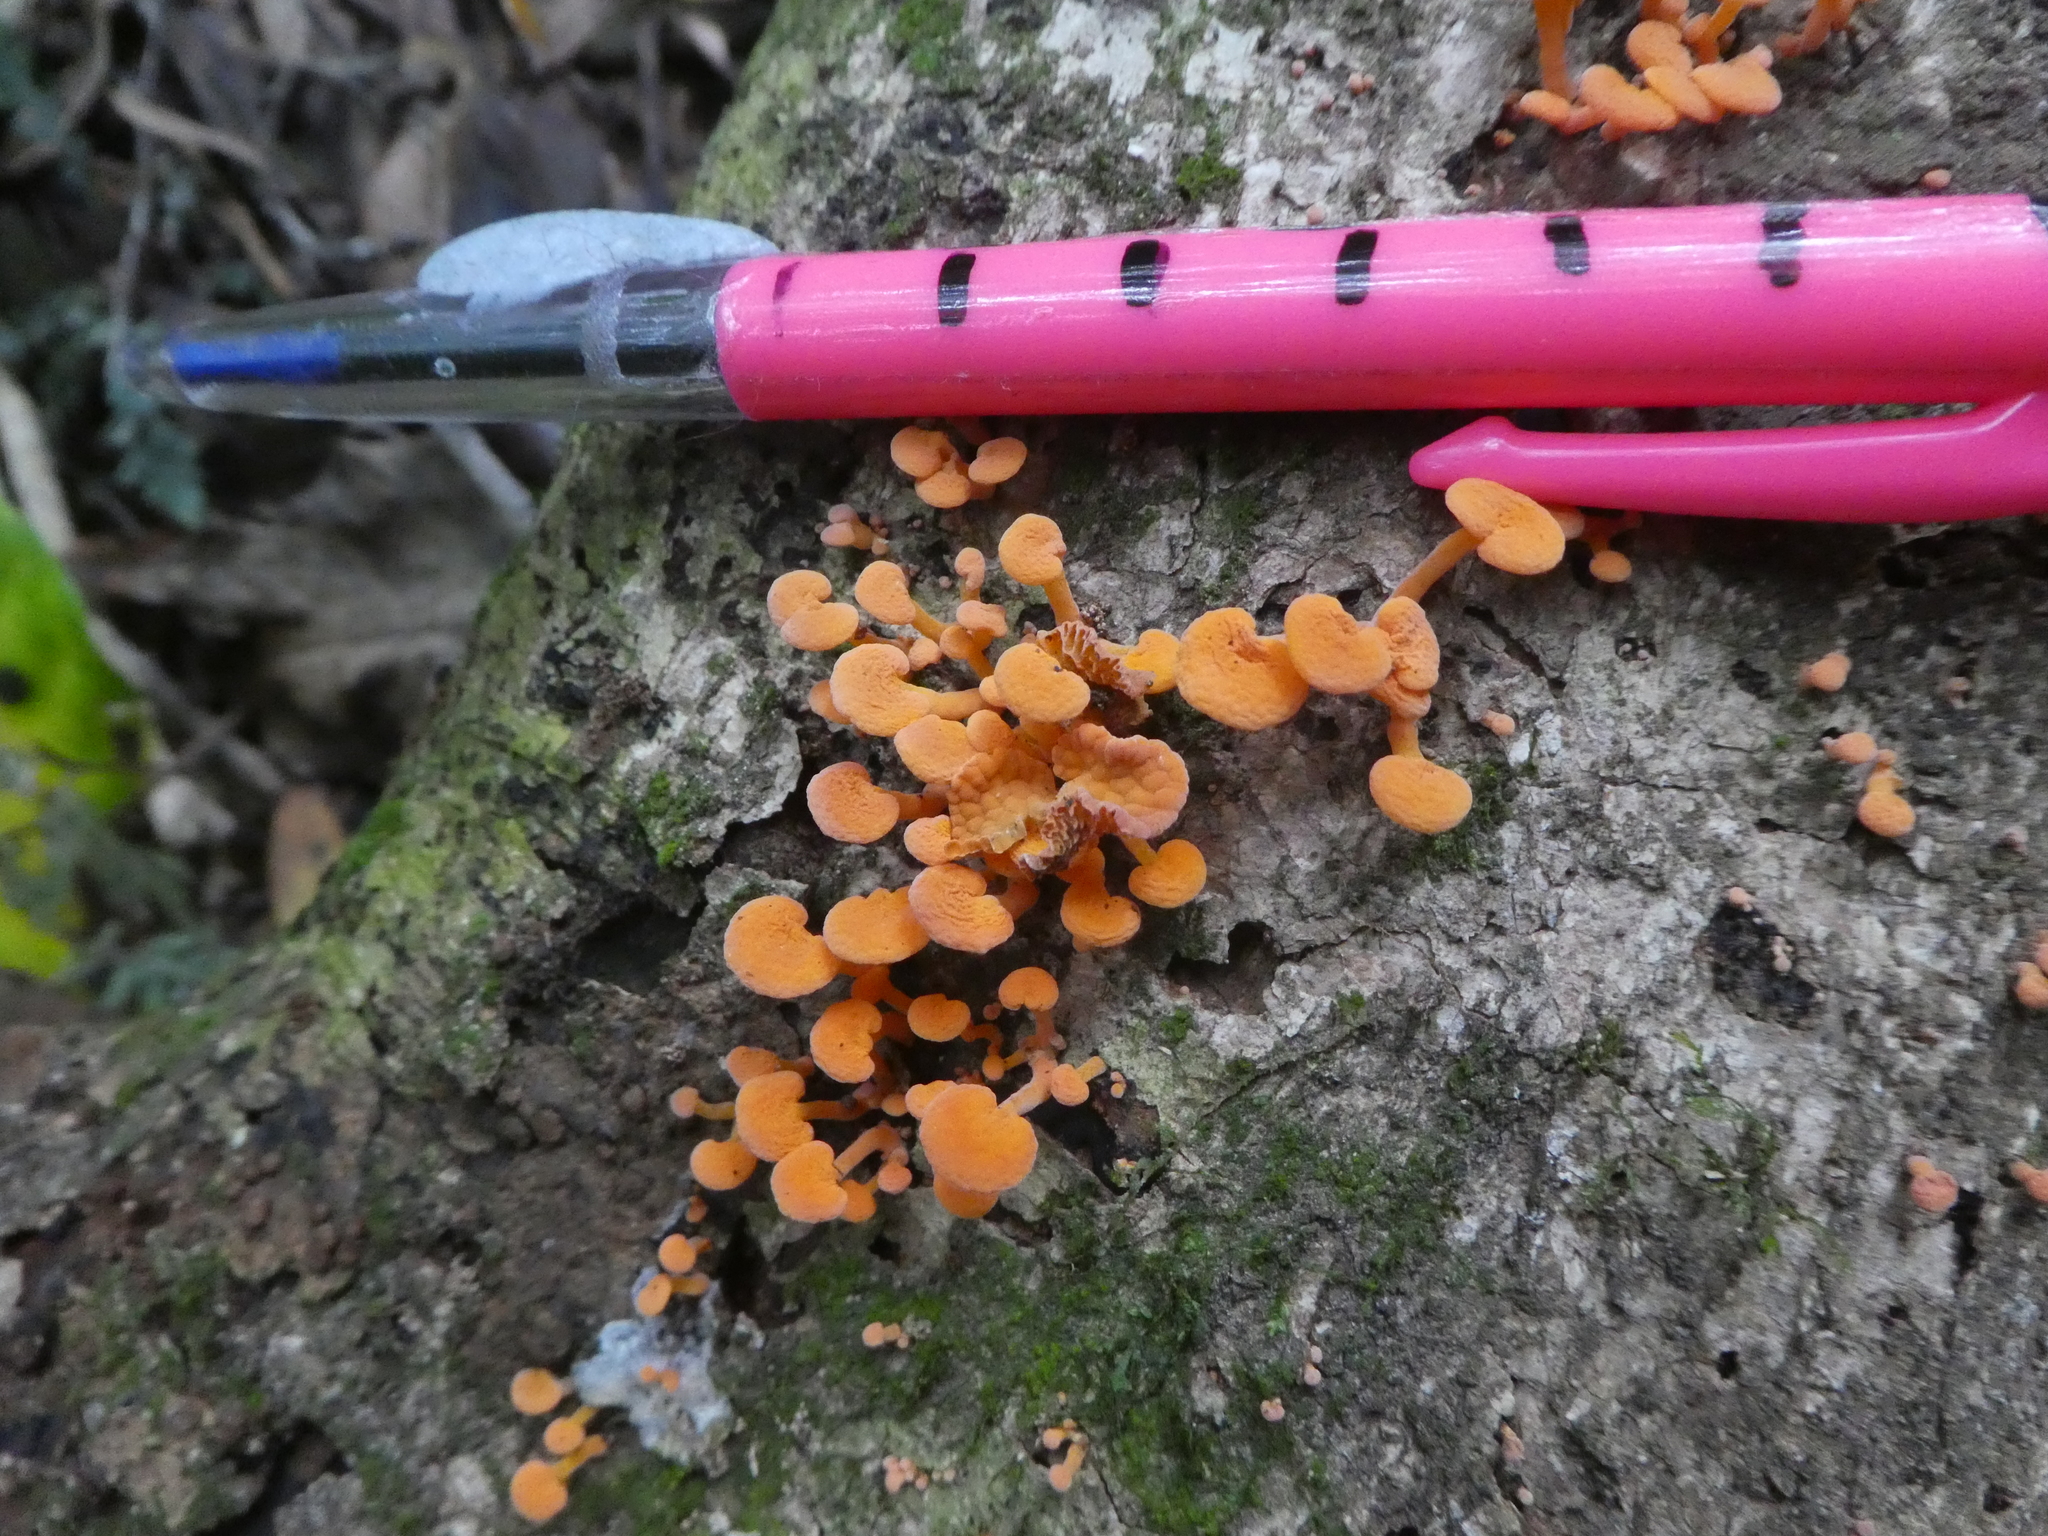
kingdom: Fungi
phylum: Basidiomycota
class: Agaricomycetes
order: Agaricales
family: Mycenaceae
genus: Favolaschia
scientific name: Favolaschia claudopus
